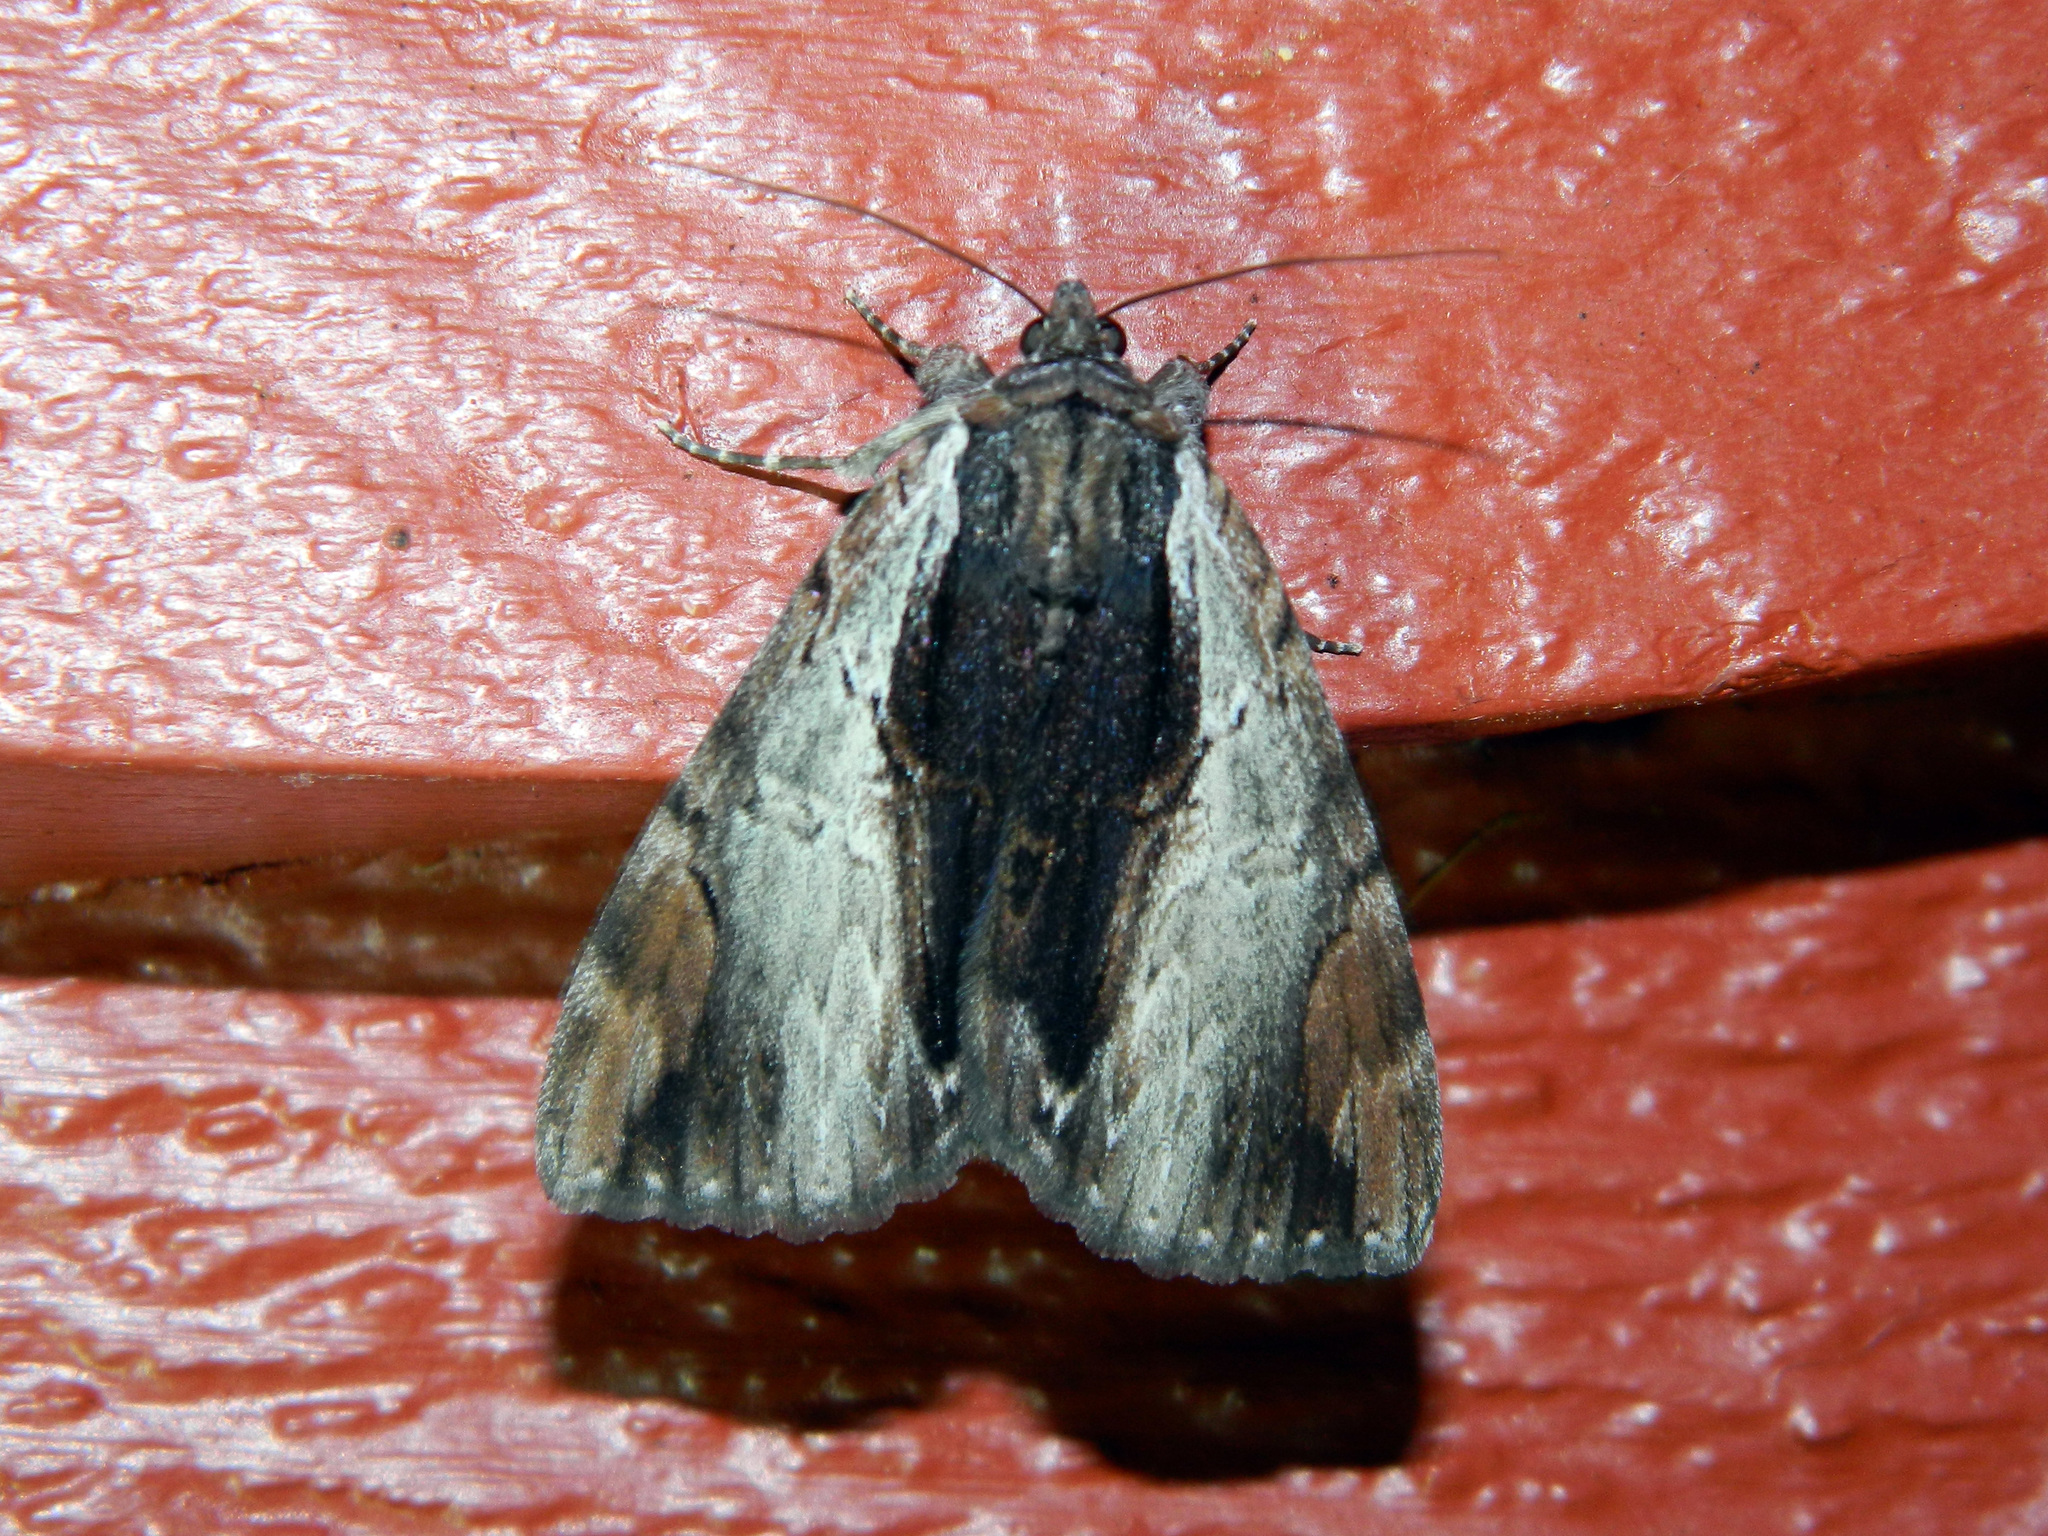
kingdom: Animalia
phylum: Arthropoda
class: Insecta
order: Lepidoptera
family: Erebidae
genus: Catocala
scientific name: Catocala ultronia
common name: Ultronia underwing
